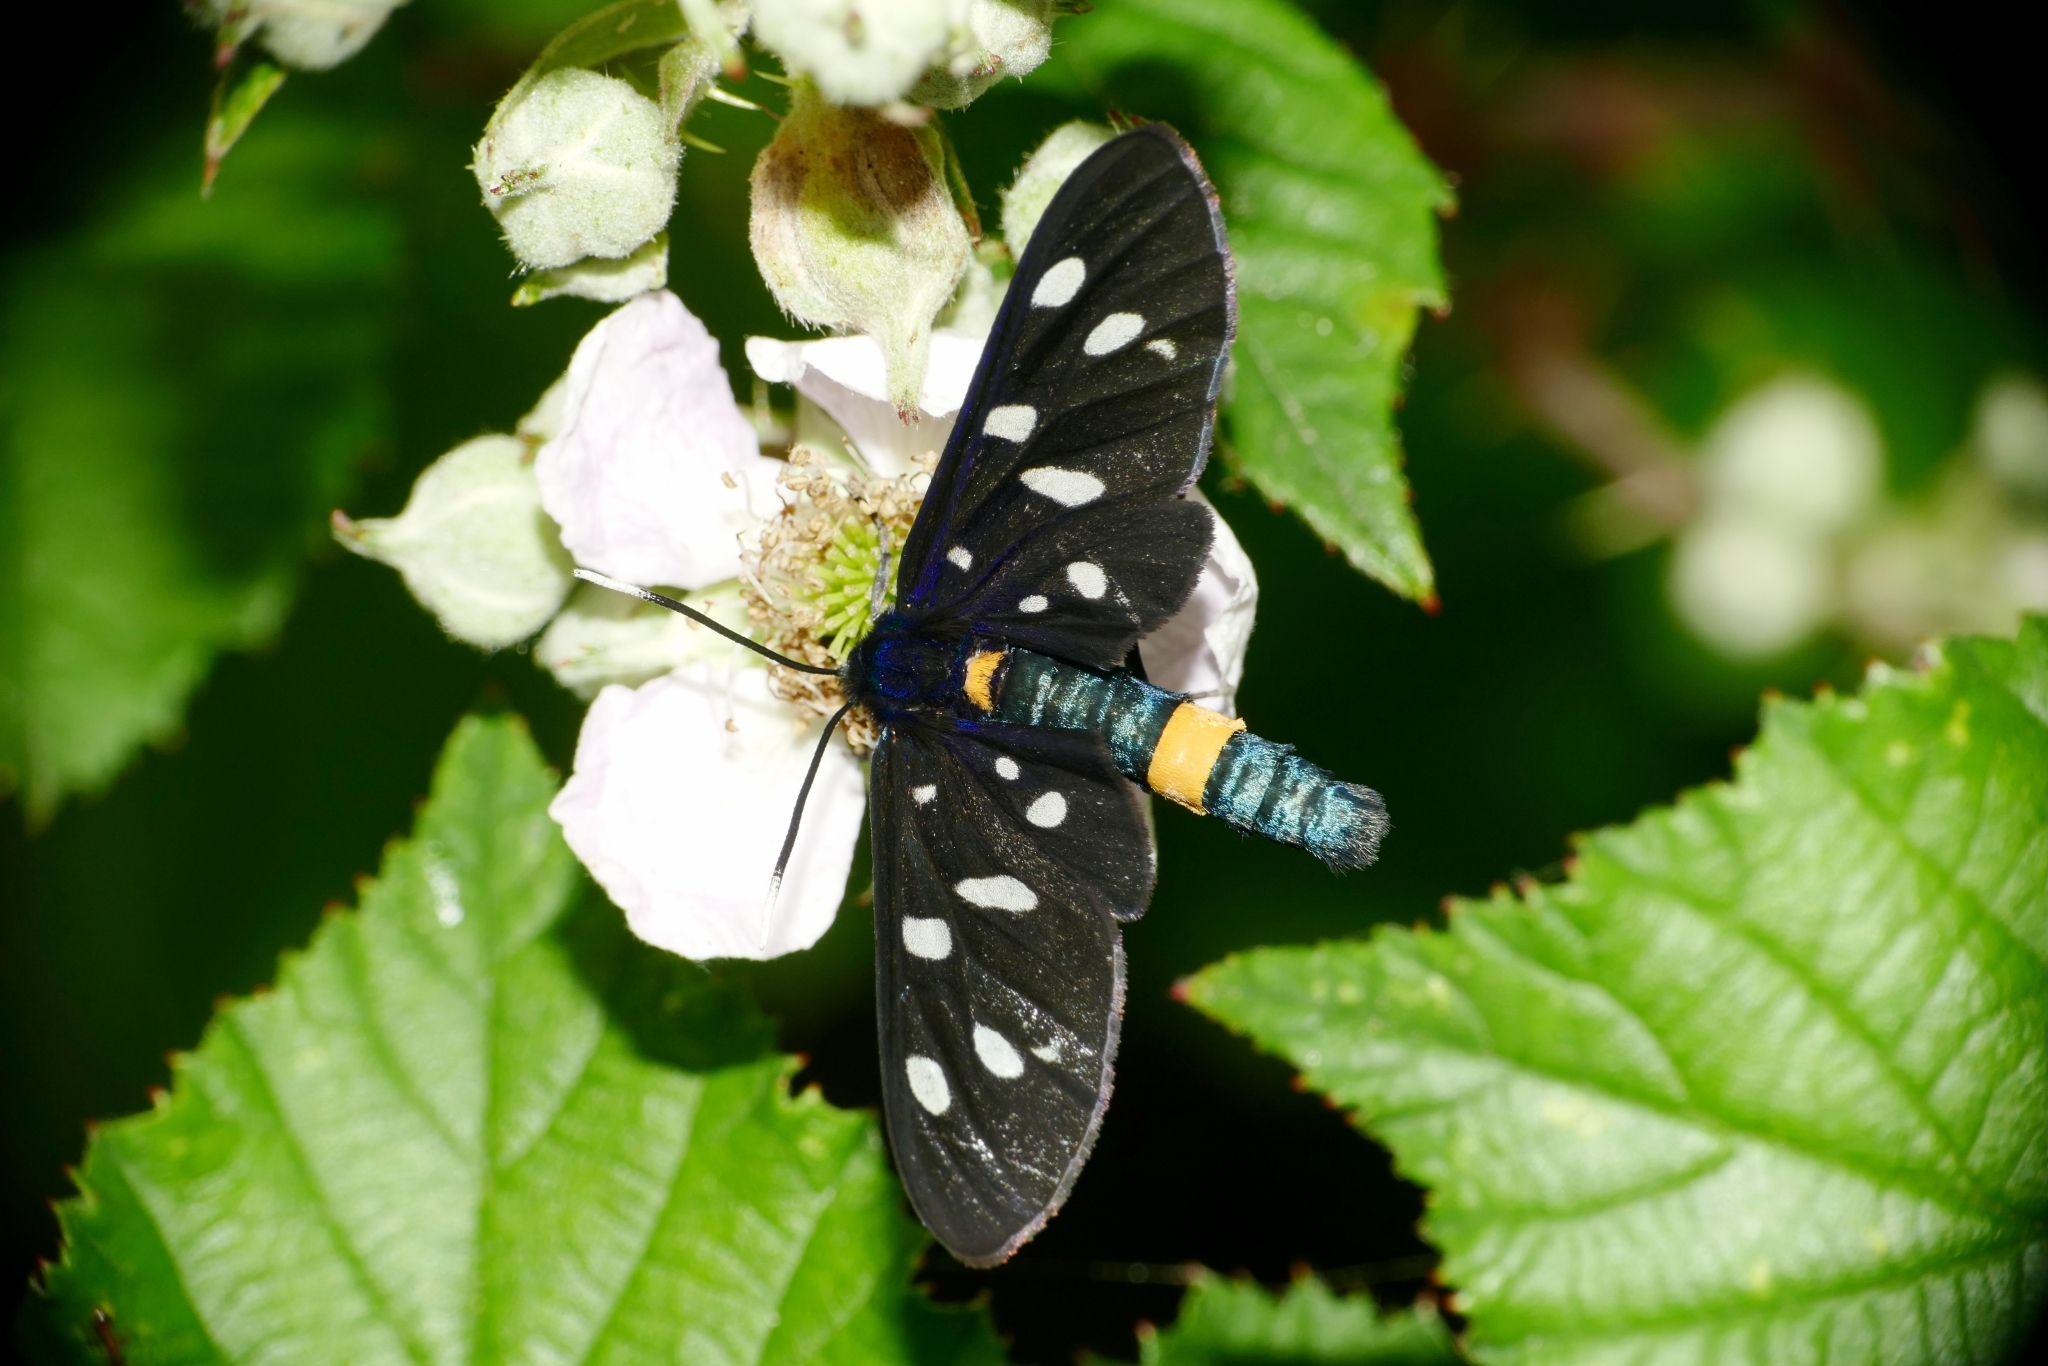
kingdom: Animalia
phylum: Arthropoda
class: Insecta
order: Lepidoptera
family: Erebidae
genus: Amata
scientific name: Amata phegea
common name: Nine-spotted
